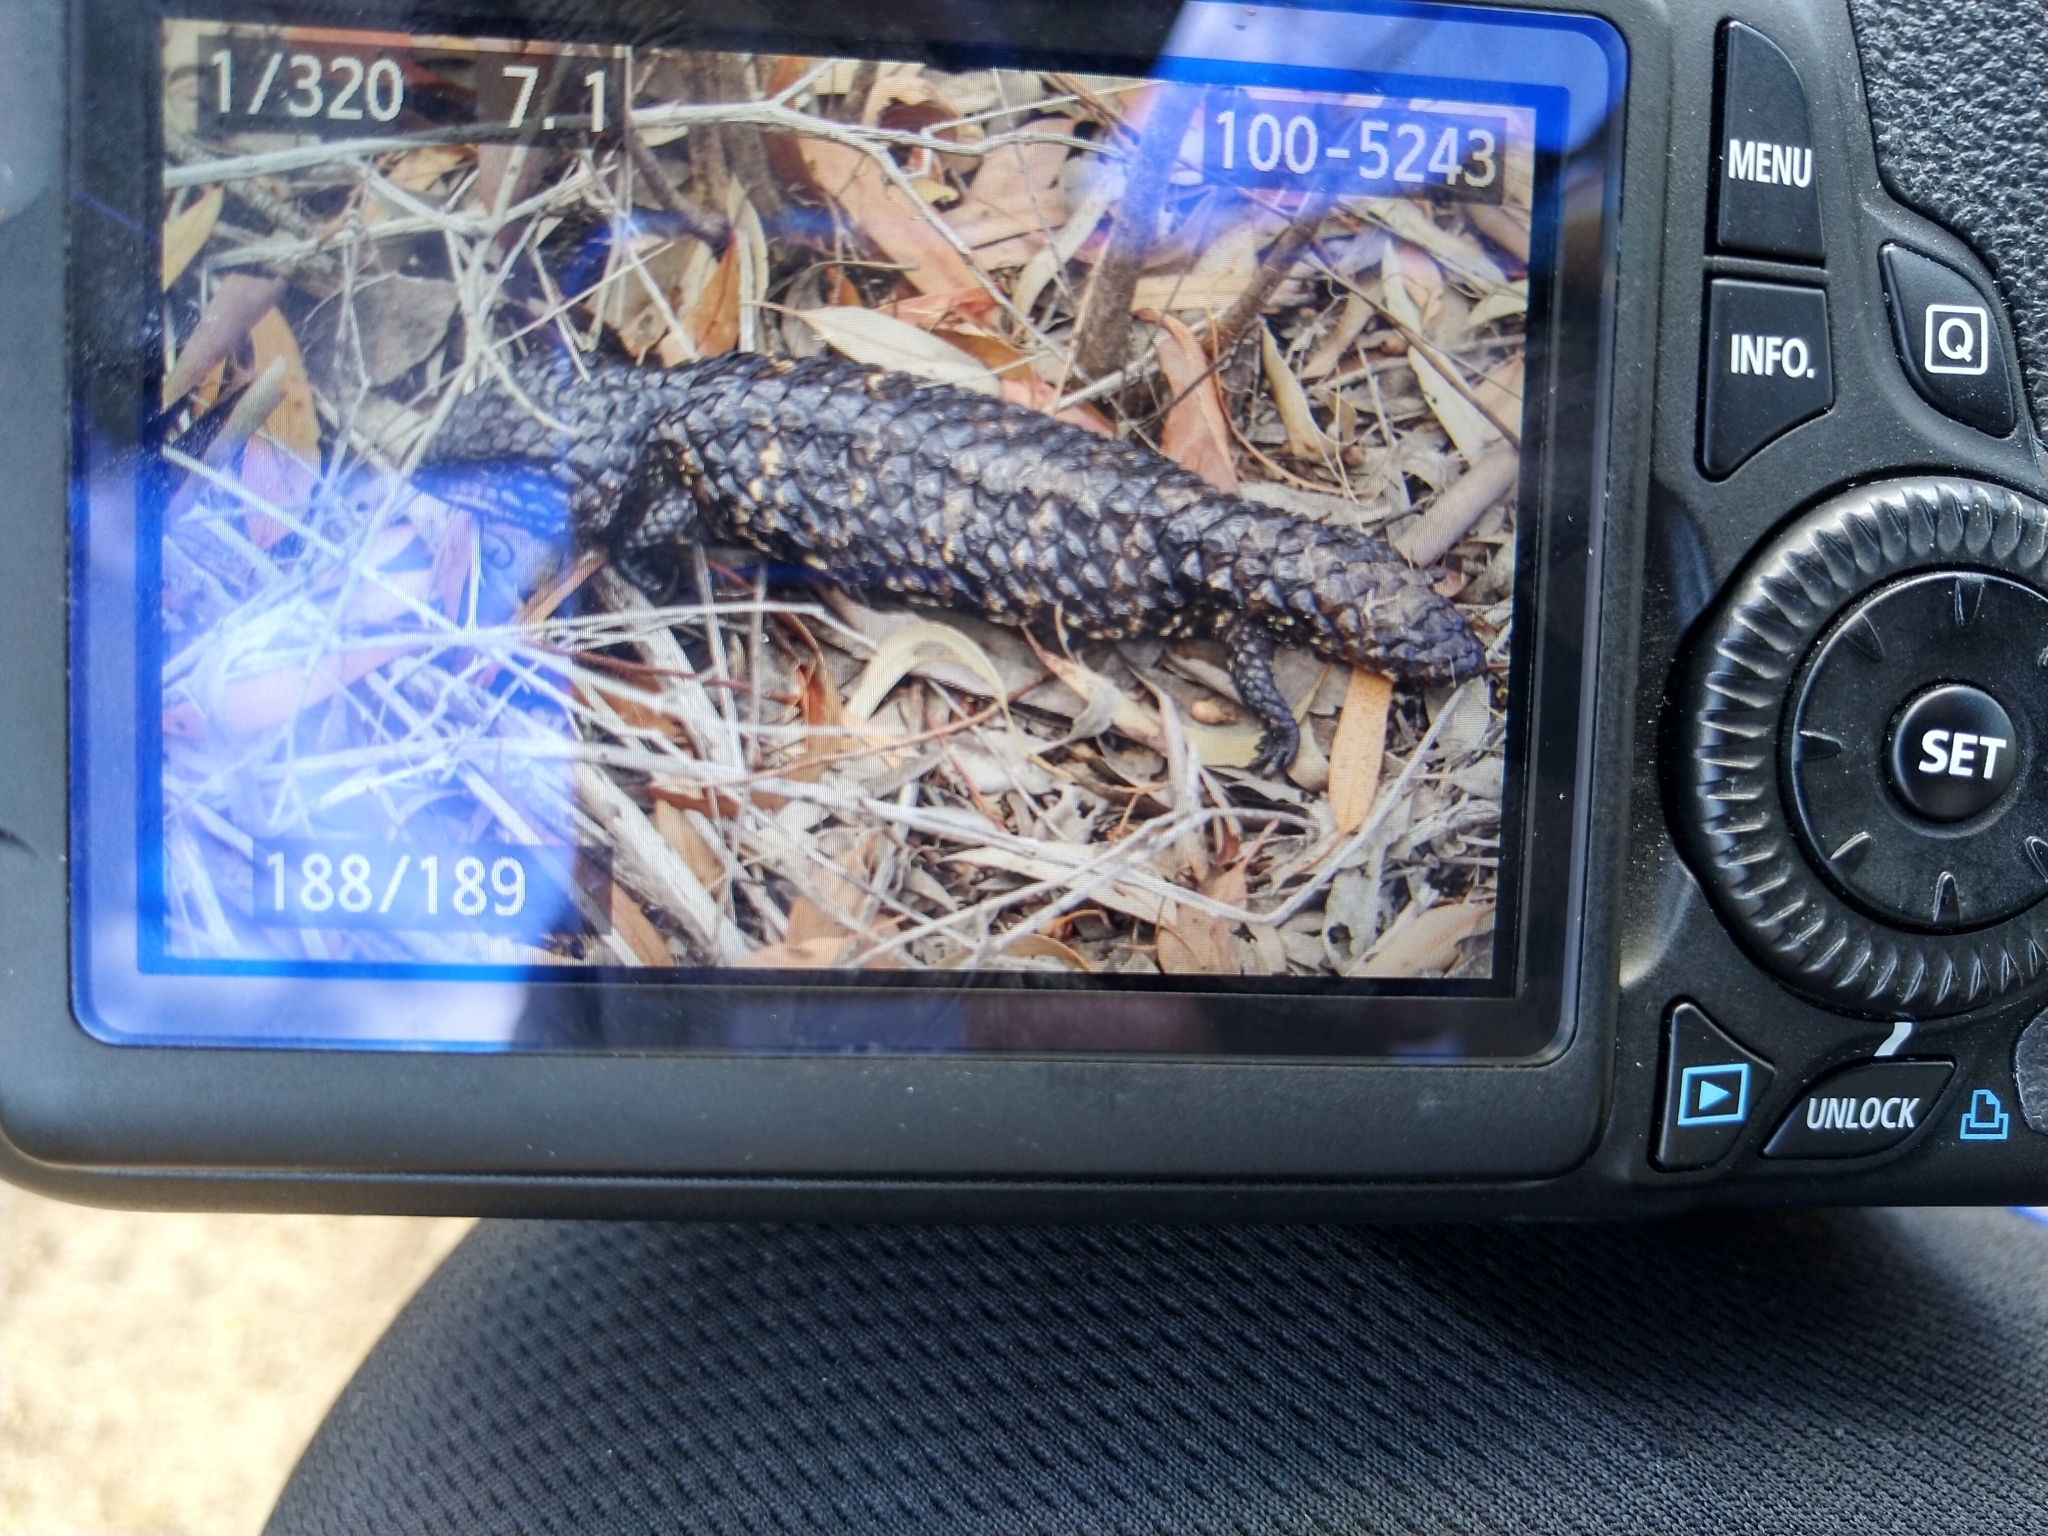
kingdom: Animalia
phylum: Chordata
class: Squamata
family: Scincidae
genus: Tiliqua
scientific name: Tiliqua rugosa
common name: Pinecone lizard
